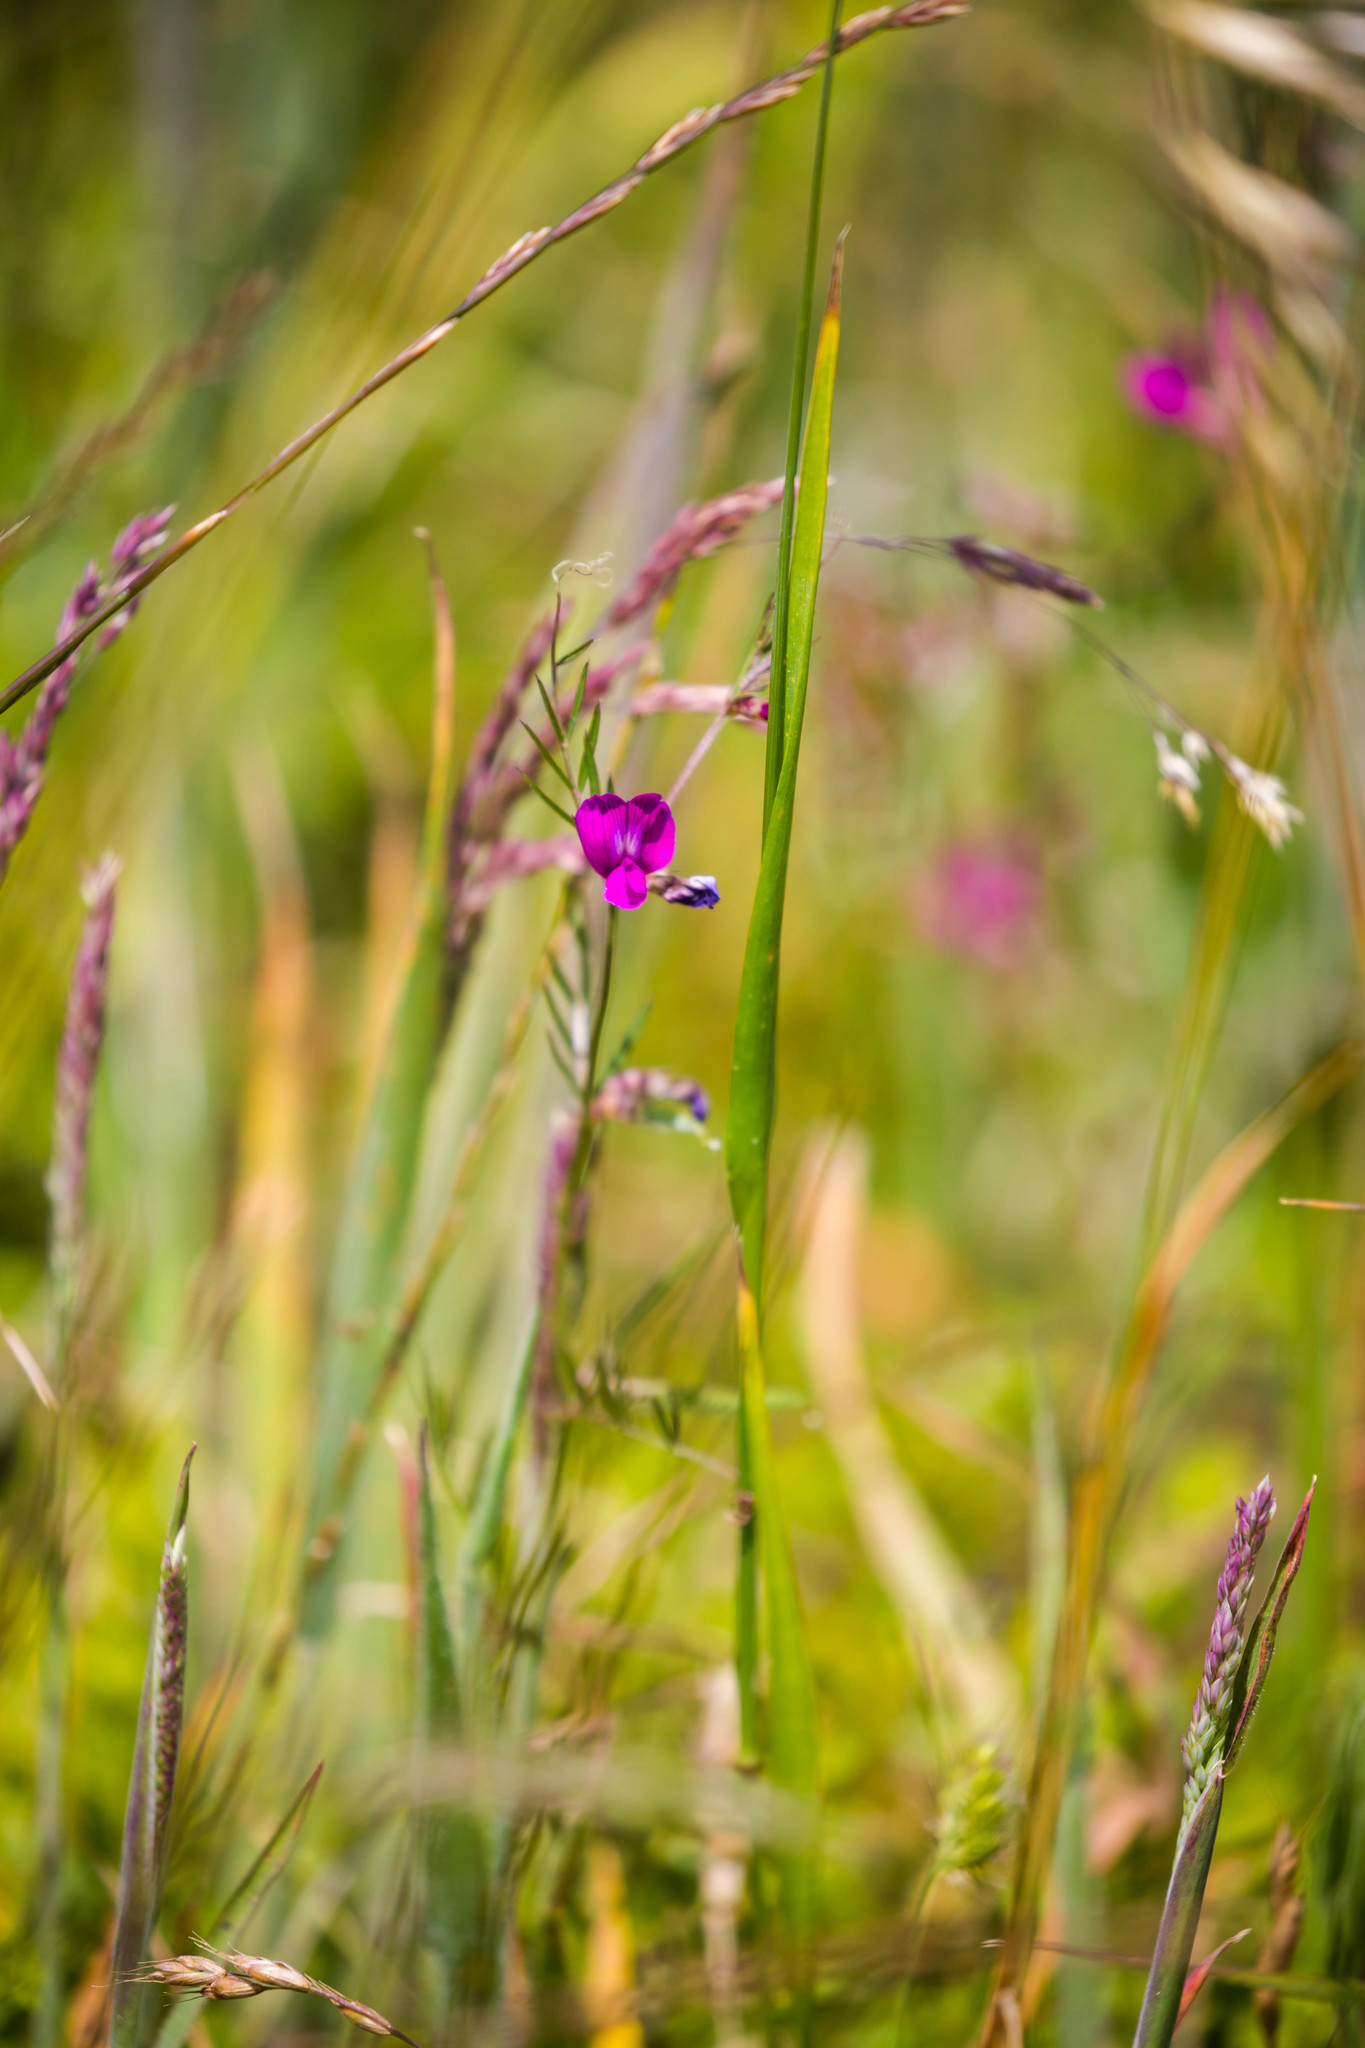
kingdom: Plantae
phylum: Tracheophyta
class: Magnoliopsida
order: Fabales
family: Fabaceae
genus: Vicia
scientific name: Vicia sativa
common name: Garden vetch
